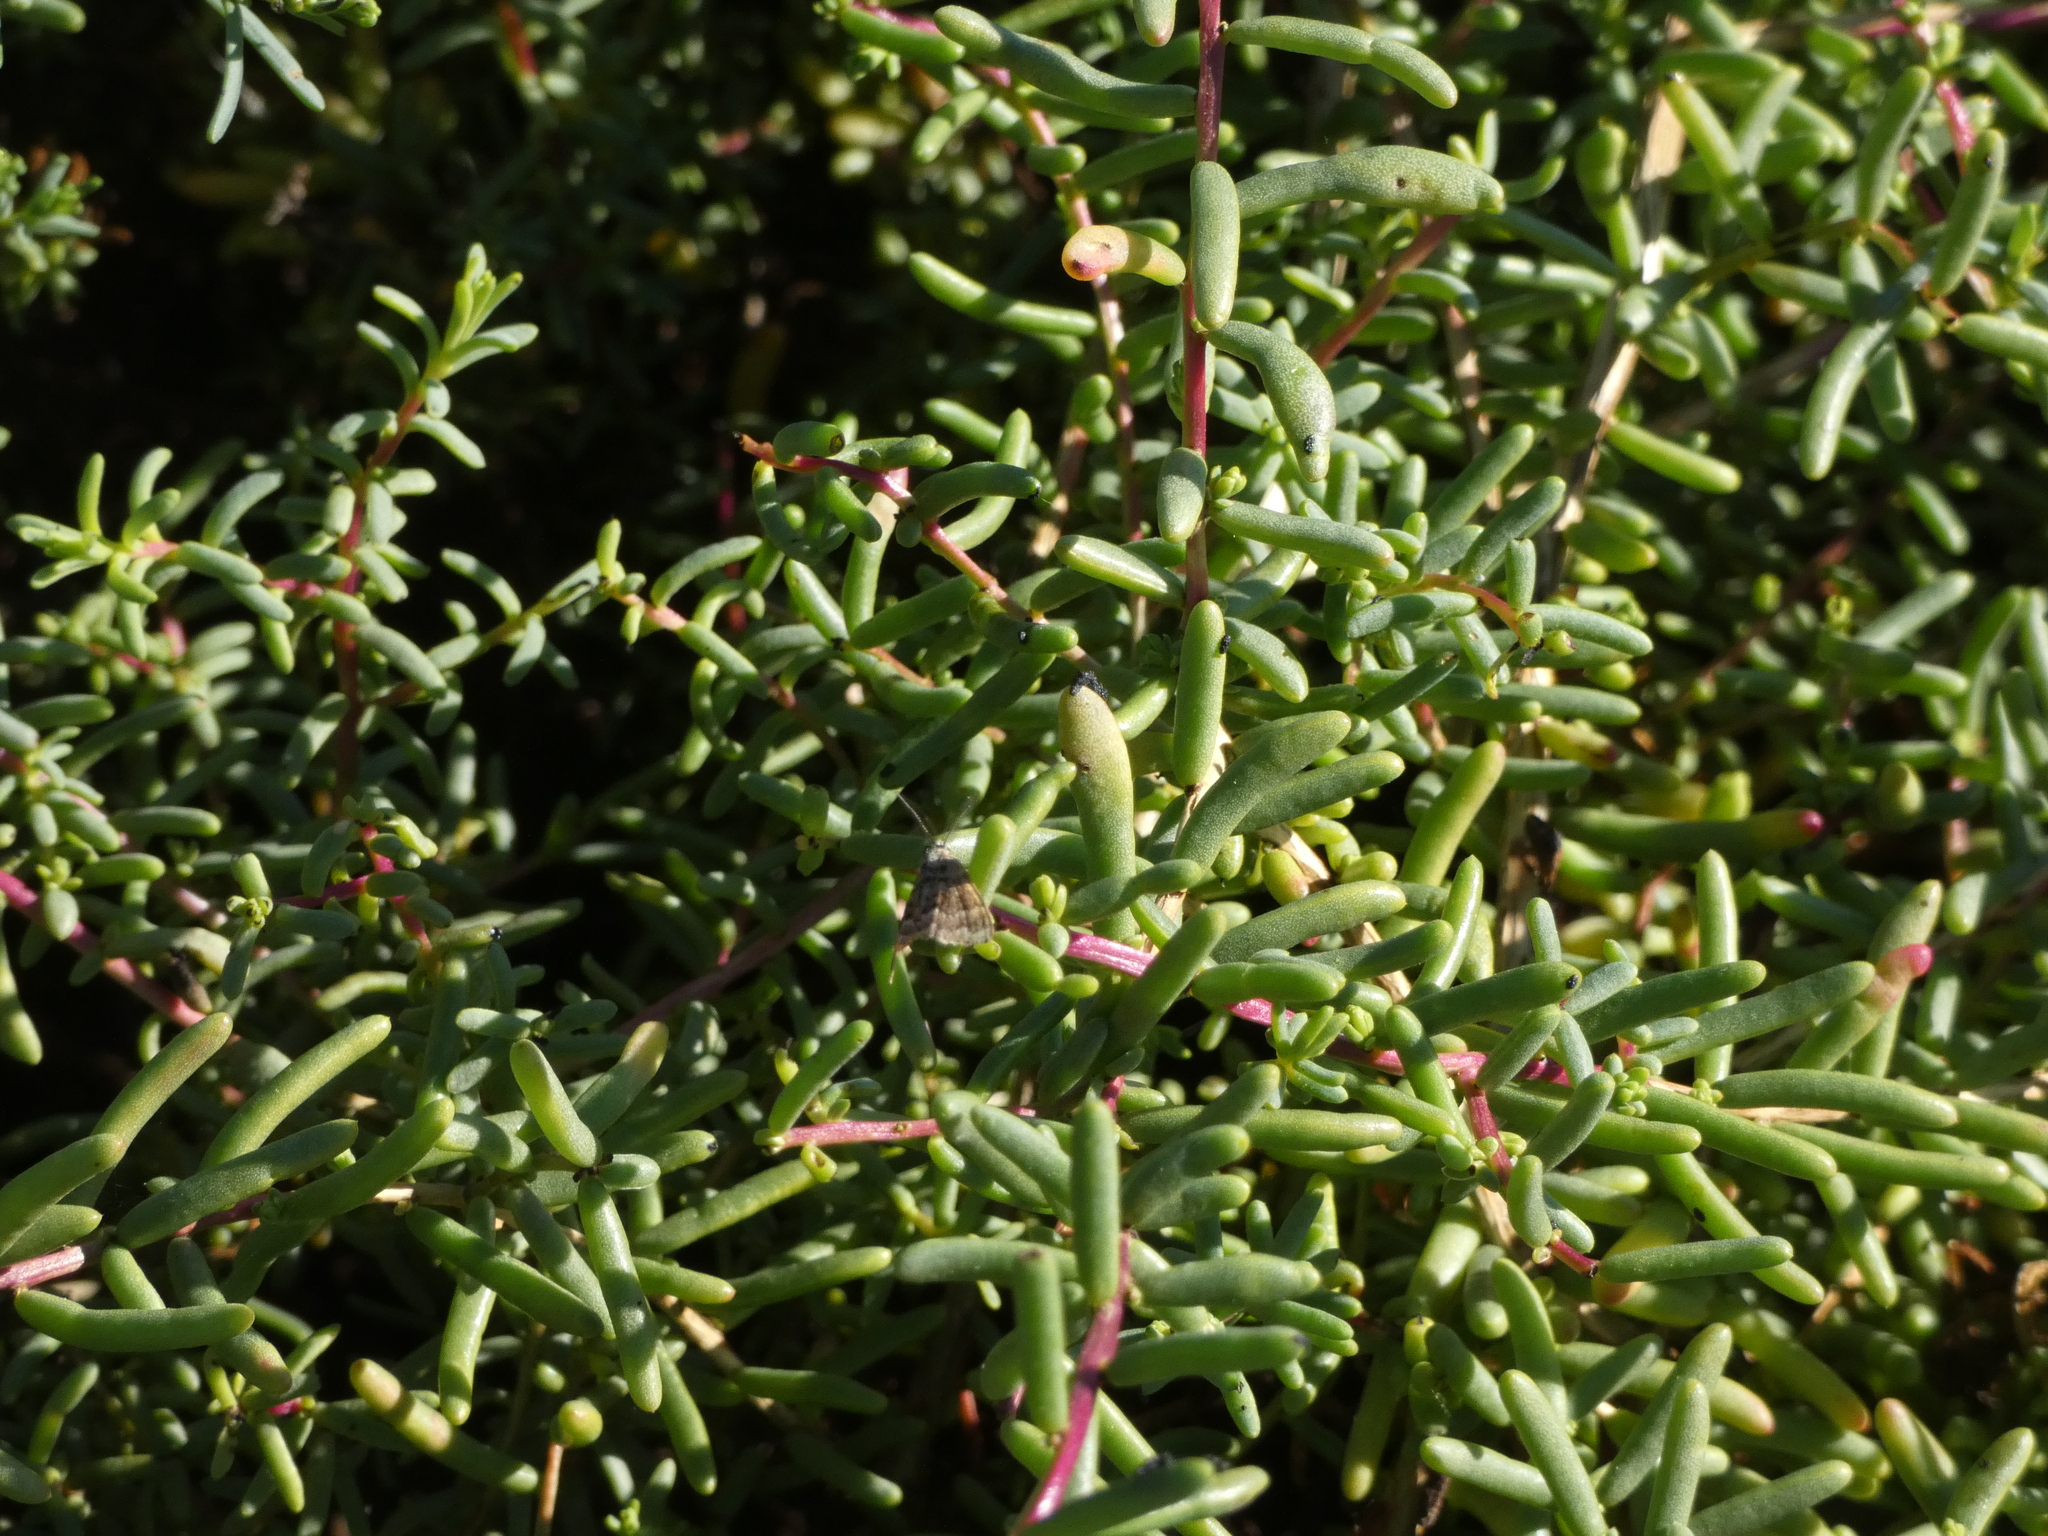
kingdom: Plantae
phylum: Tracheophyta
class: Magnoliopsida
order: Caryophyllales
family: Amaranthaceae
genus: Suaeda
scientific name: Suaeda vera
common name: Shrubby sea-blite
